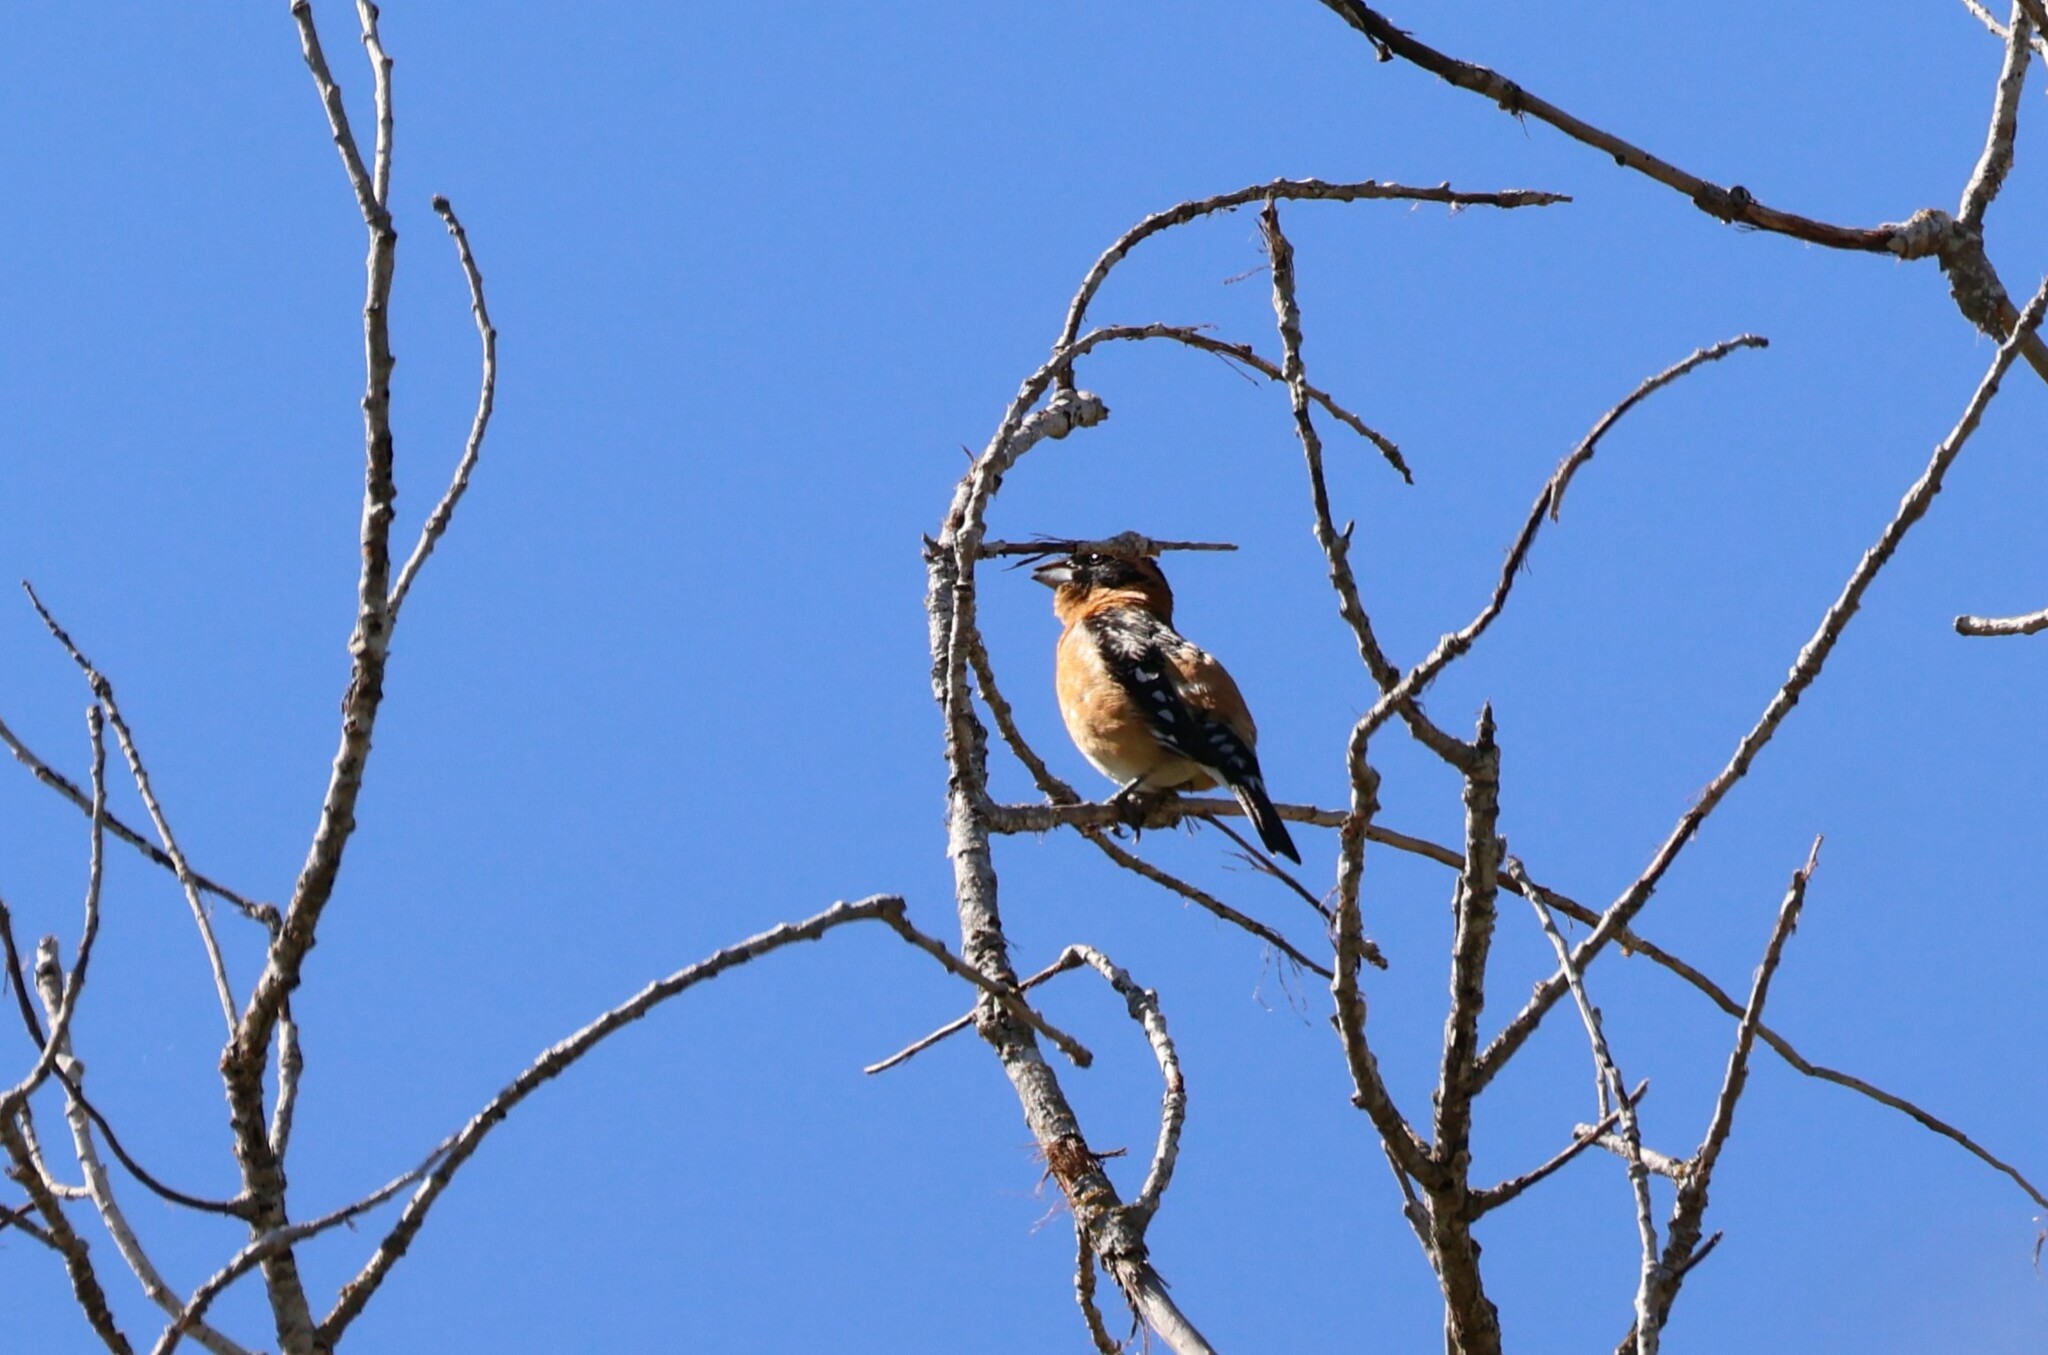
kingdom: Animalia
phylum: Chordata
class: Aves
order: Passeriformes
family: Cardinalidae
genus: Pheucticus
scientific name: Pheucticus melanocephalus
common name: Black-headed grosbeak
